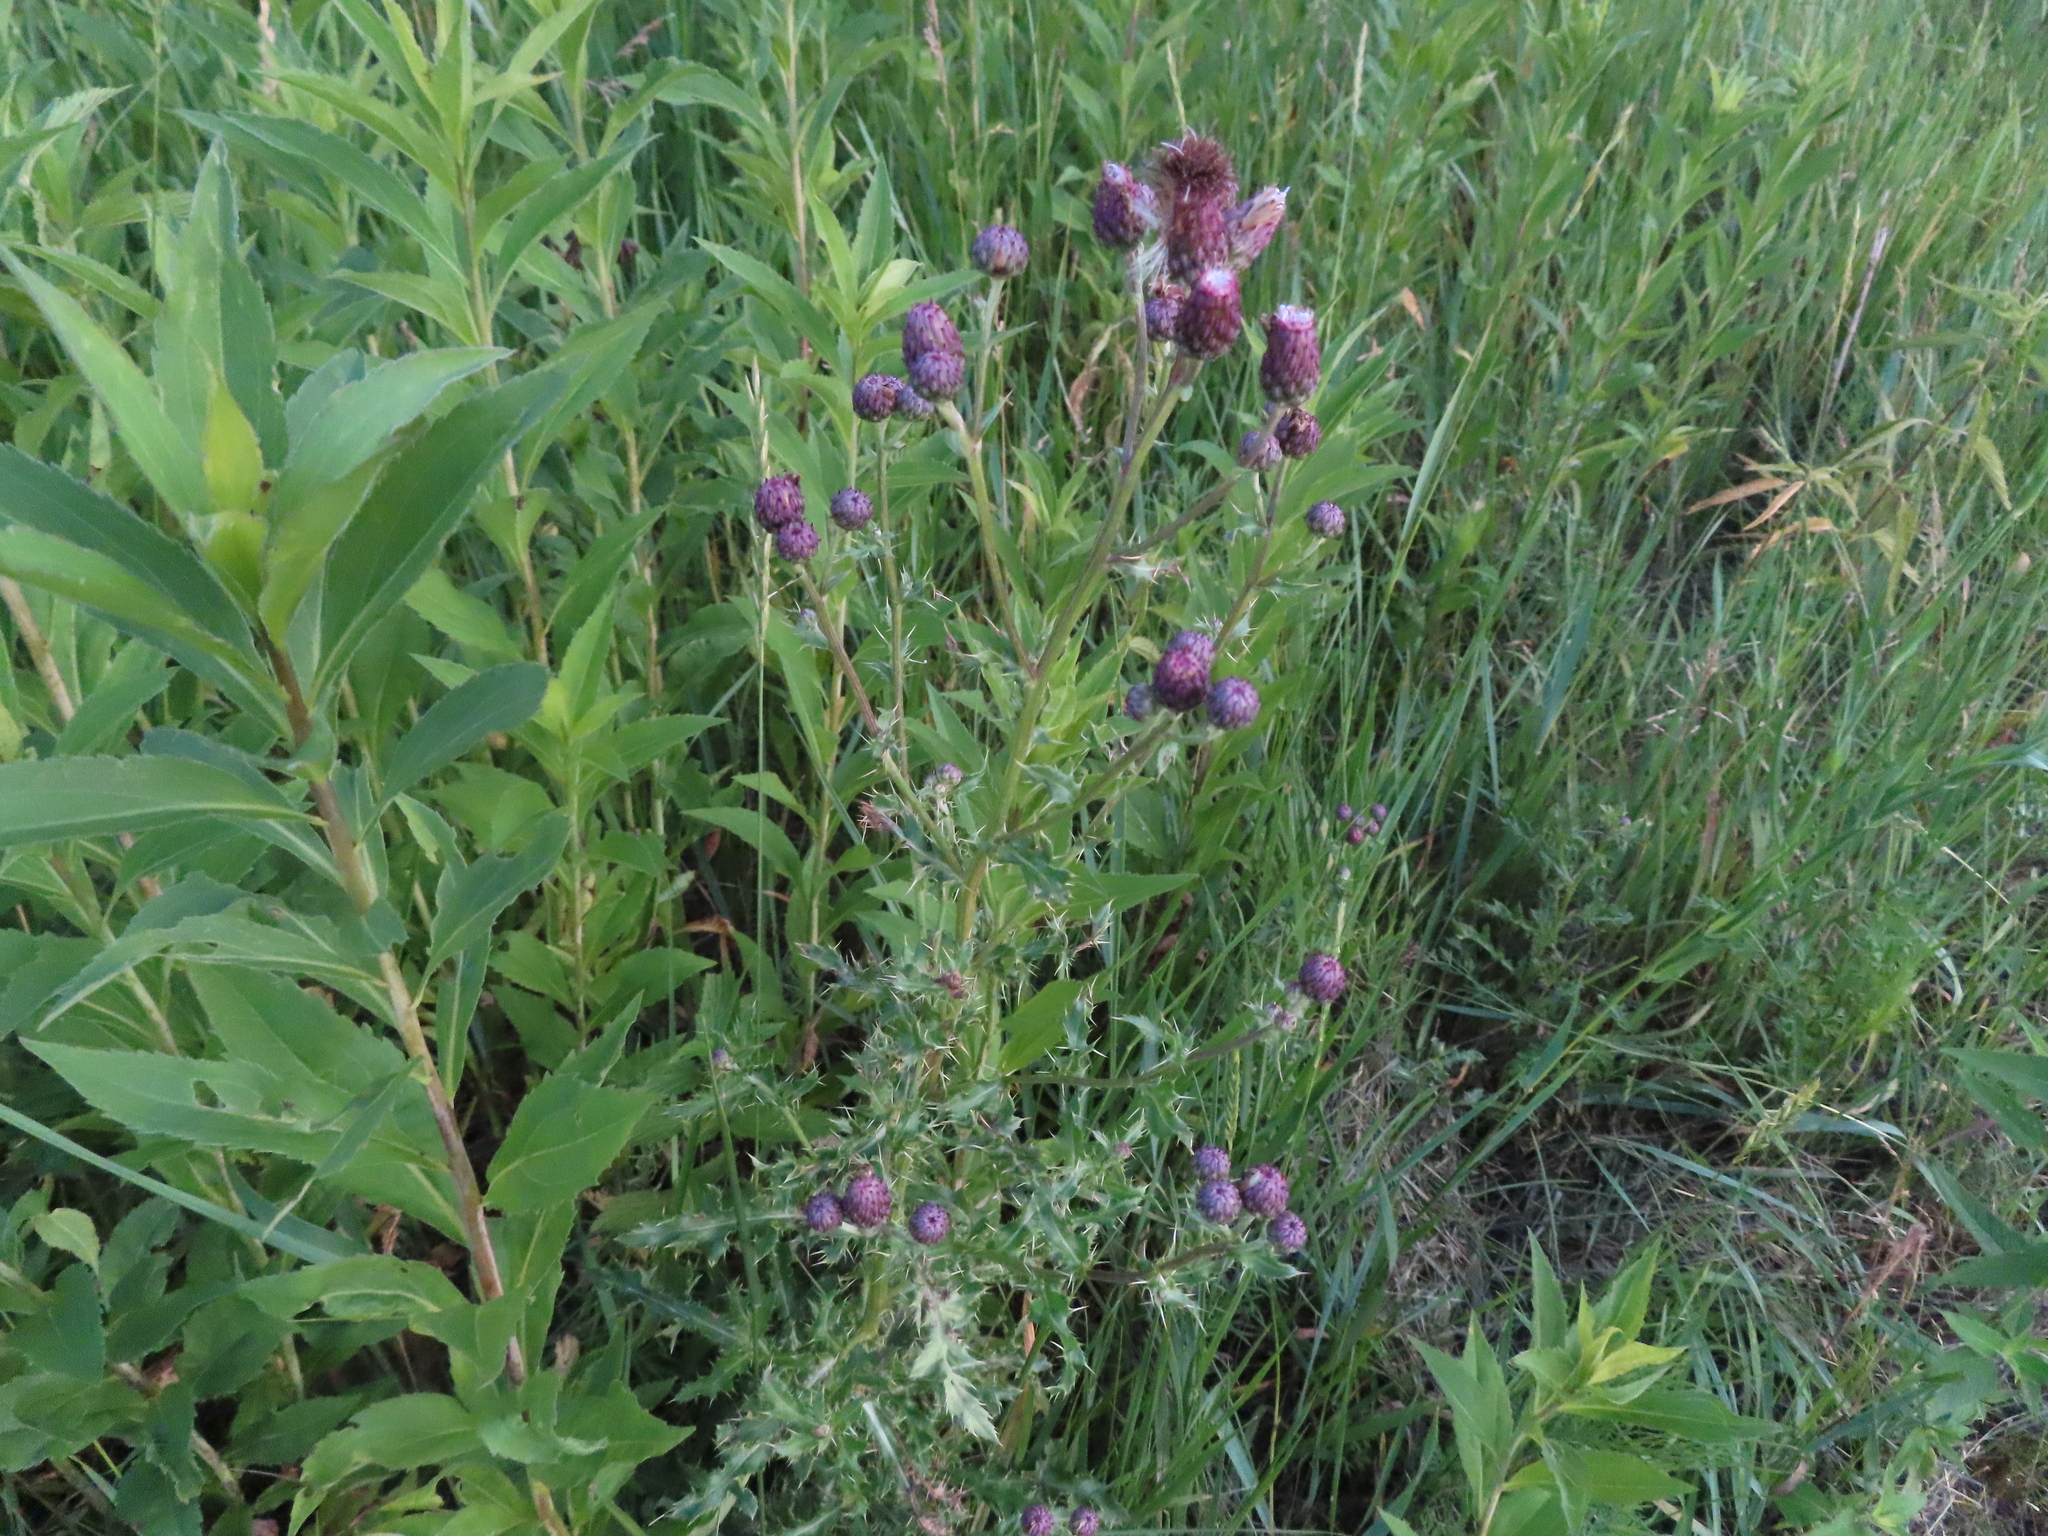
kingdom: Plantae
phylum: Tracheophyta
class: Magnoliopsida
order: Asterales
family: Asteraceae
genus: Cirsium
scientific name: Cirsium arvense
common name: Creeping thistle
